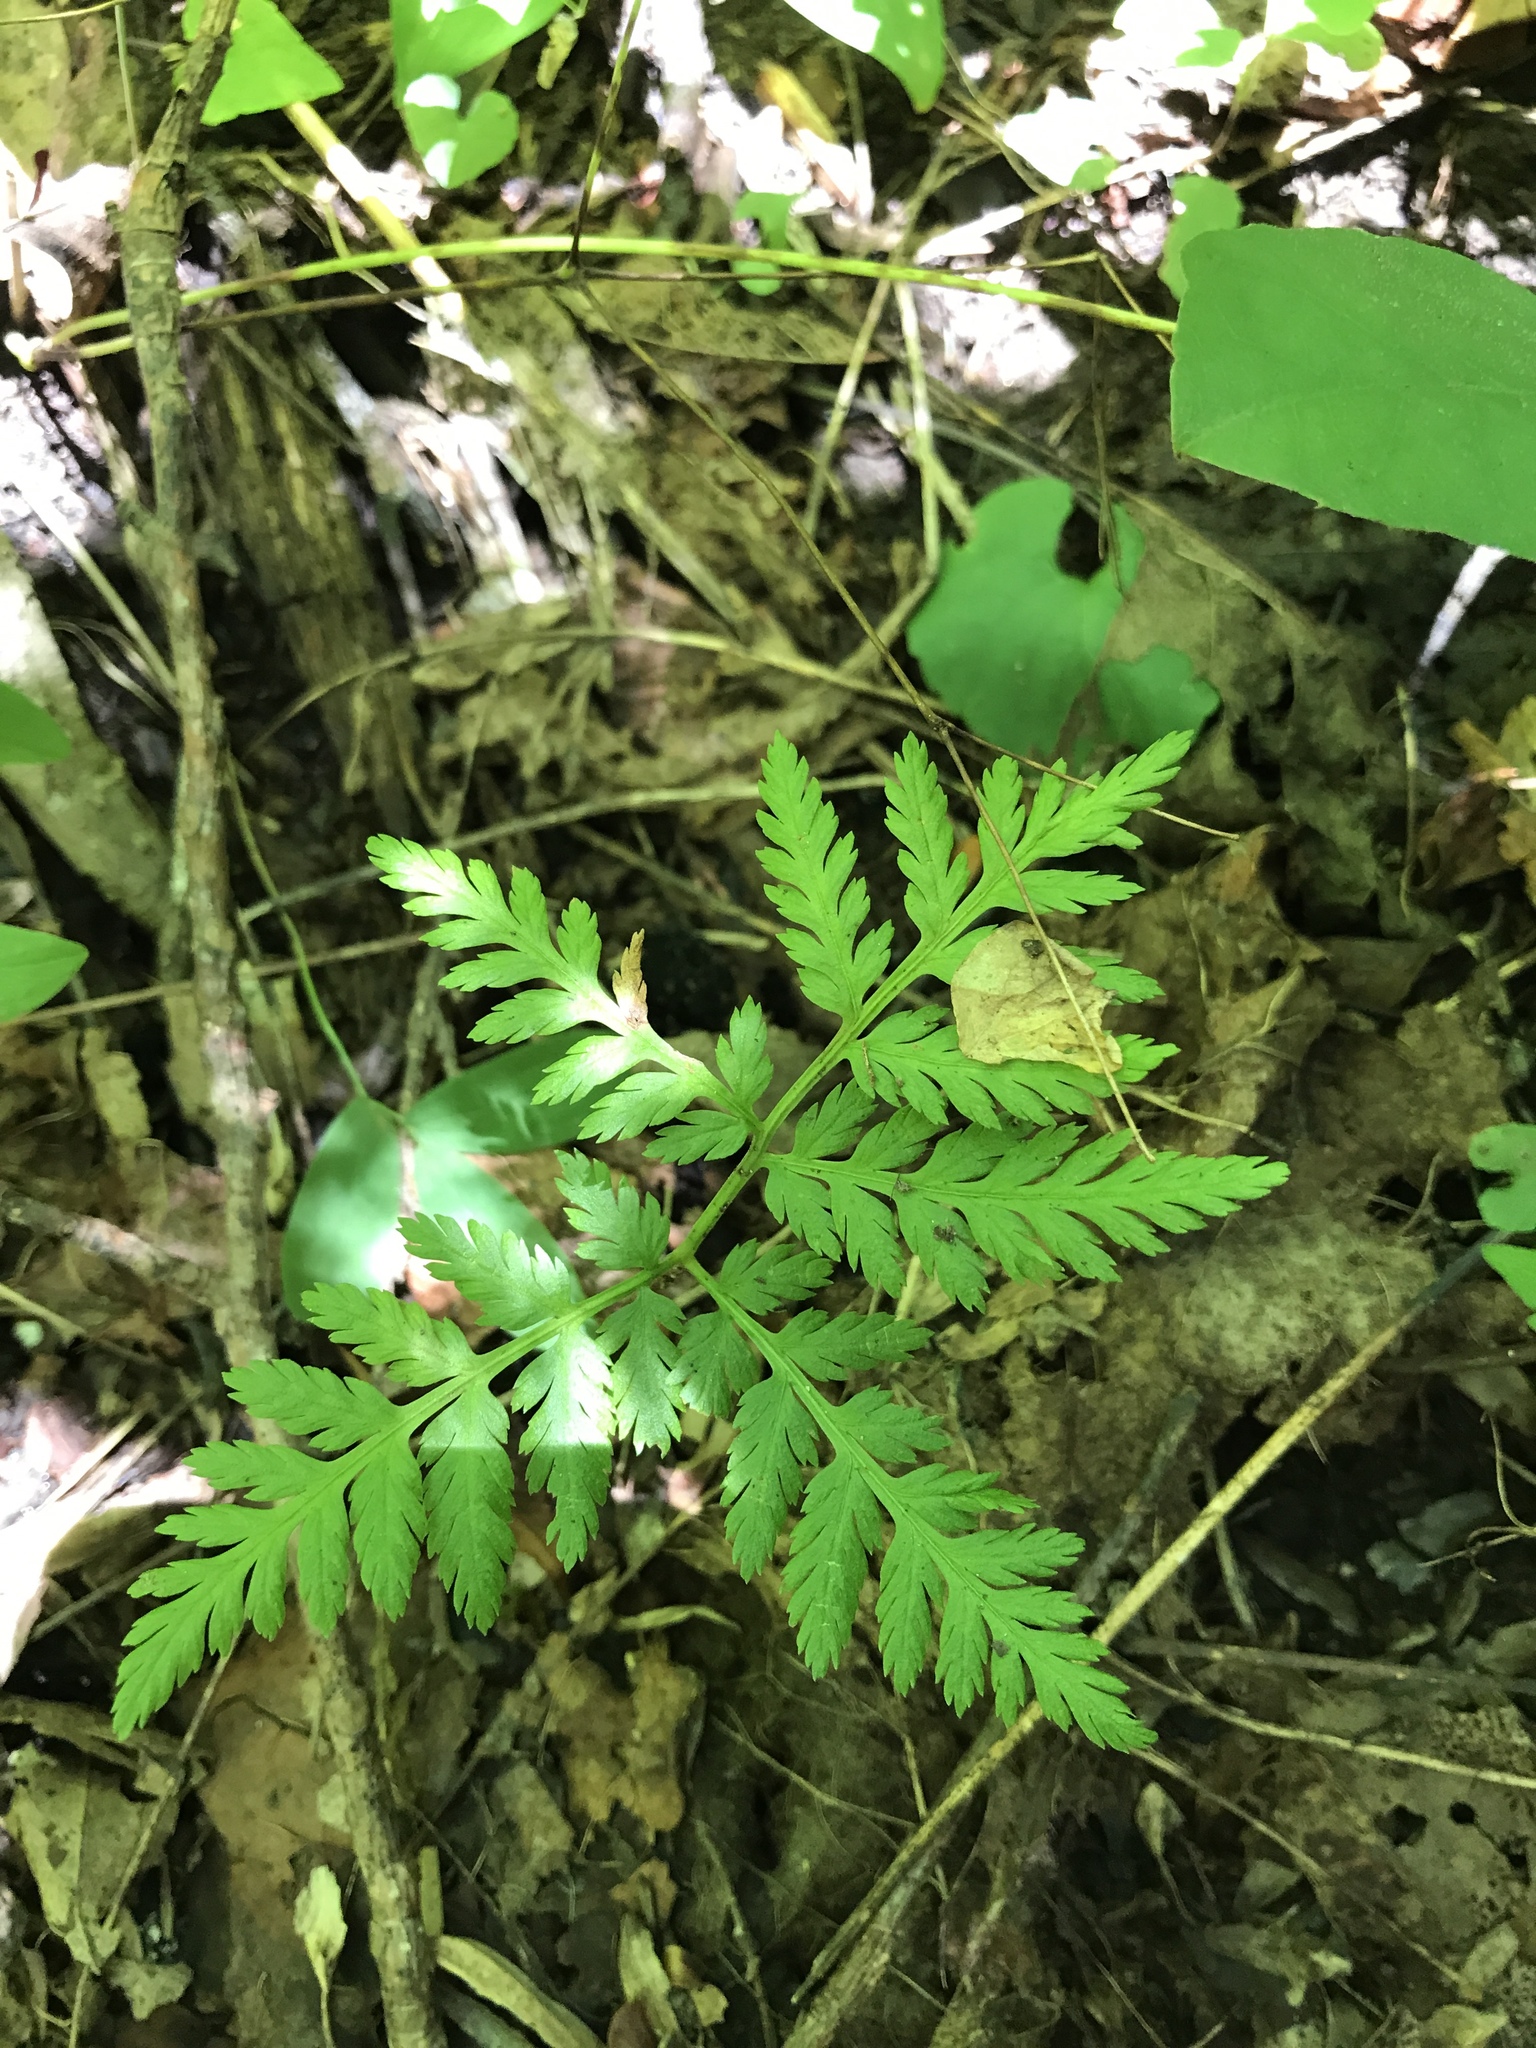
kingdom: Plantae
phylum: Tracheophyta
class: Polypodiopsida
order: Ophioglossales
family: Ophioglossaceae
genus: Botrypus
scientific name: Botrypus virginianus
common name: Common grapefern
